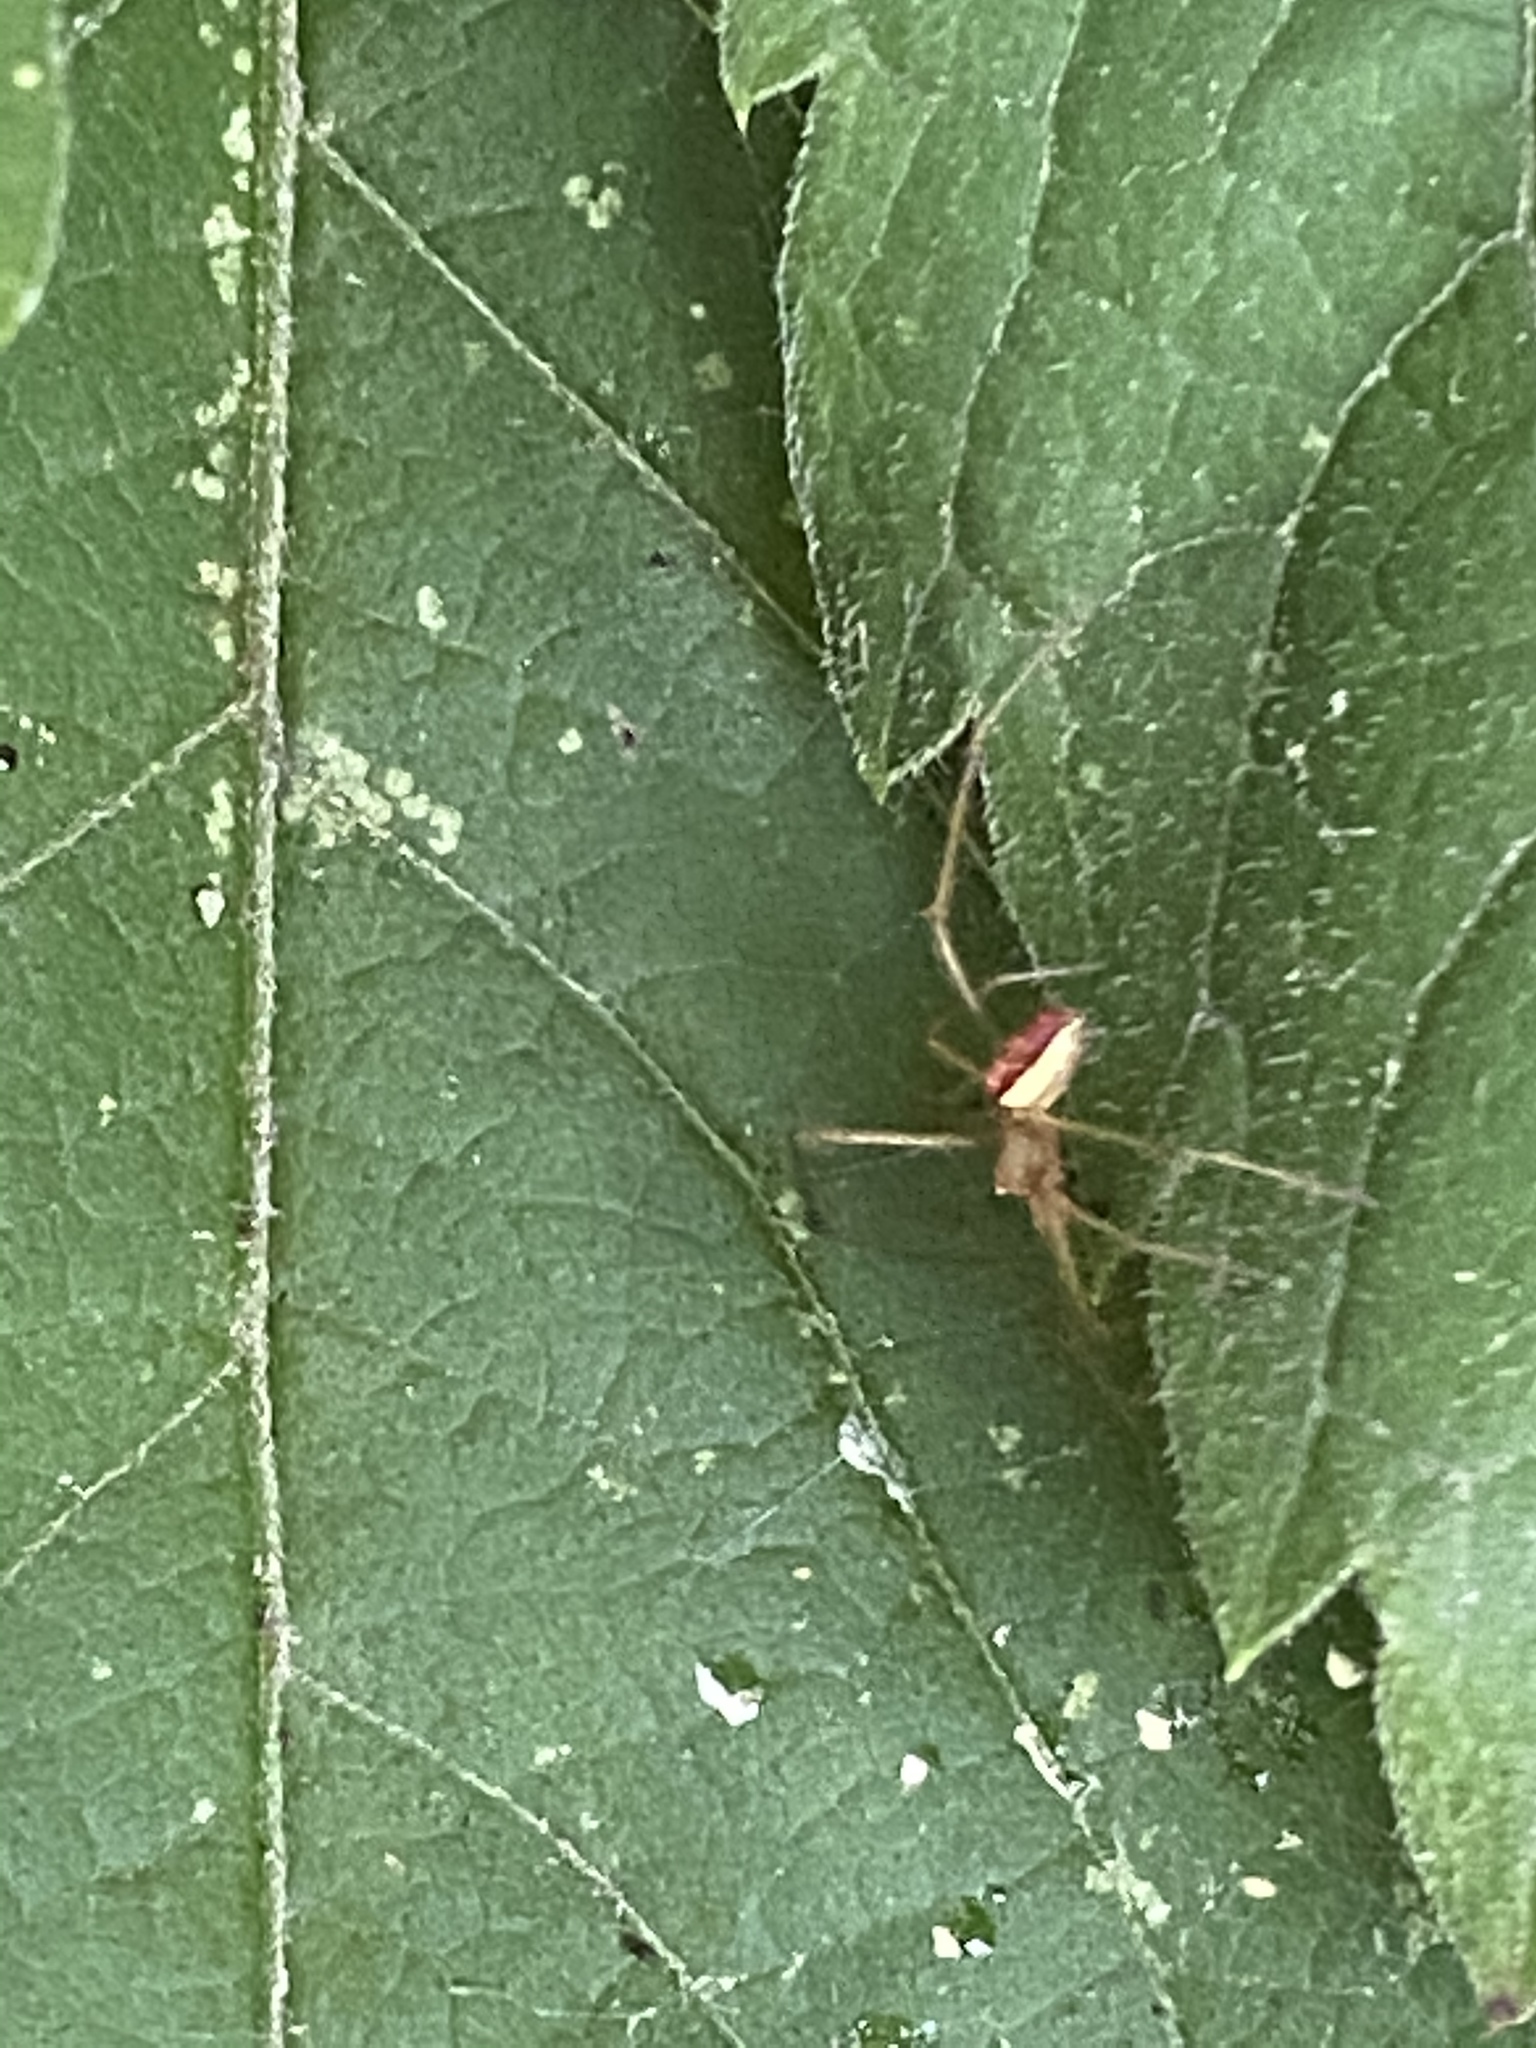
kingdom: Animalia
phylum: Arthropoda
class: Arachnida
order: Araneae
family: Theridiidae
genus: Enoplognatha
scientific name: Enoplognatha ovata
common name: Common candy-striped spider
